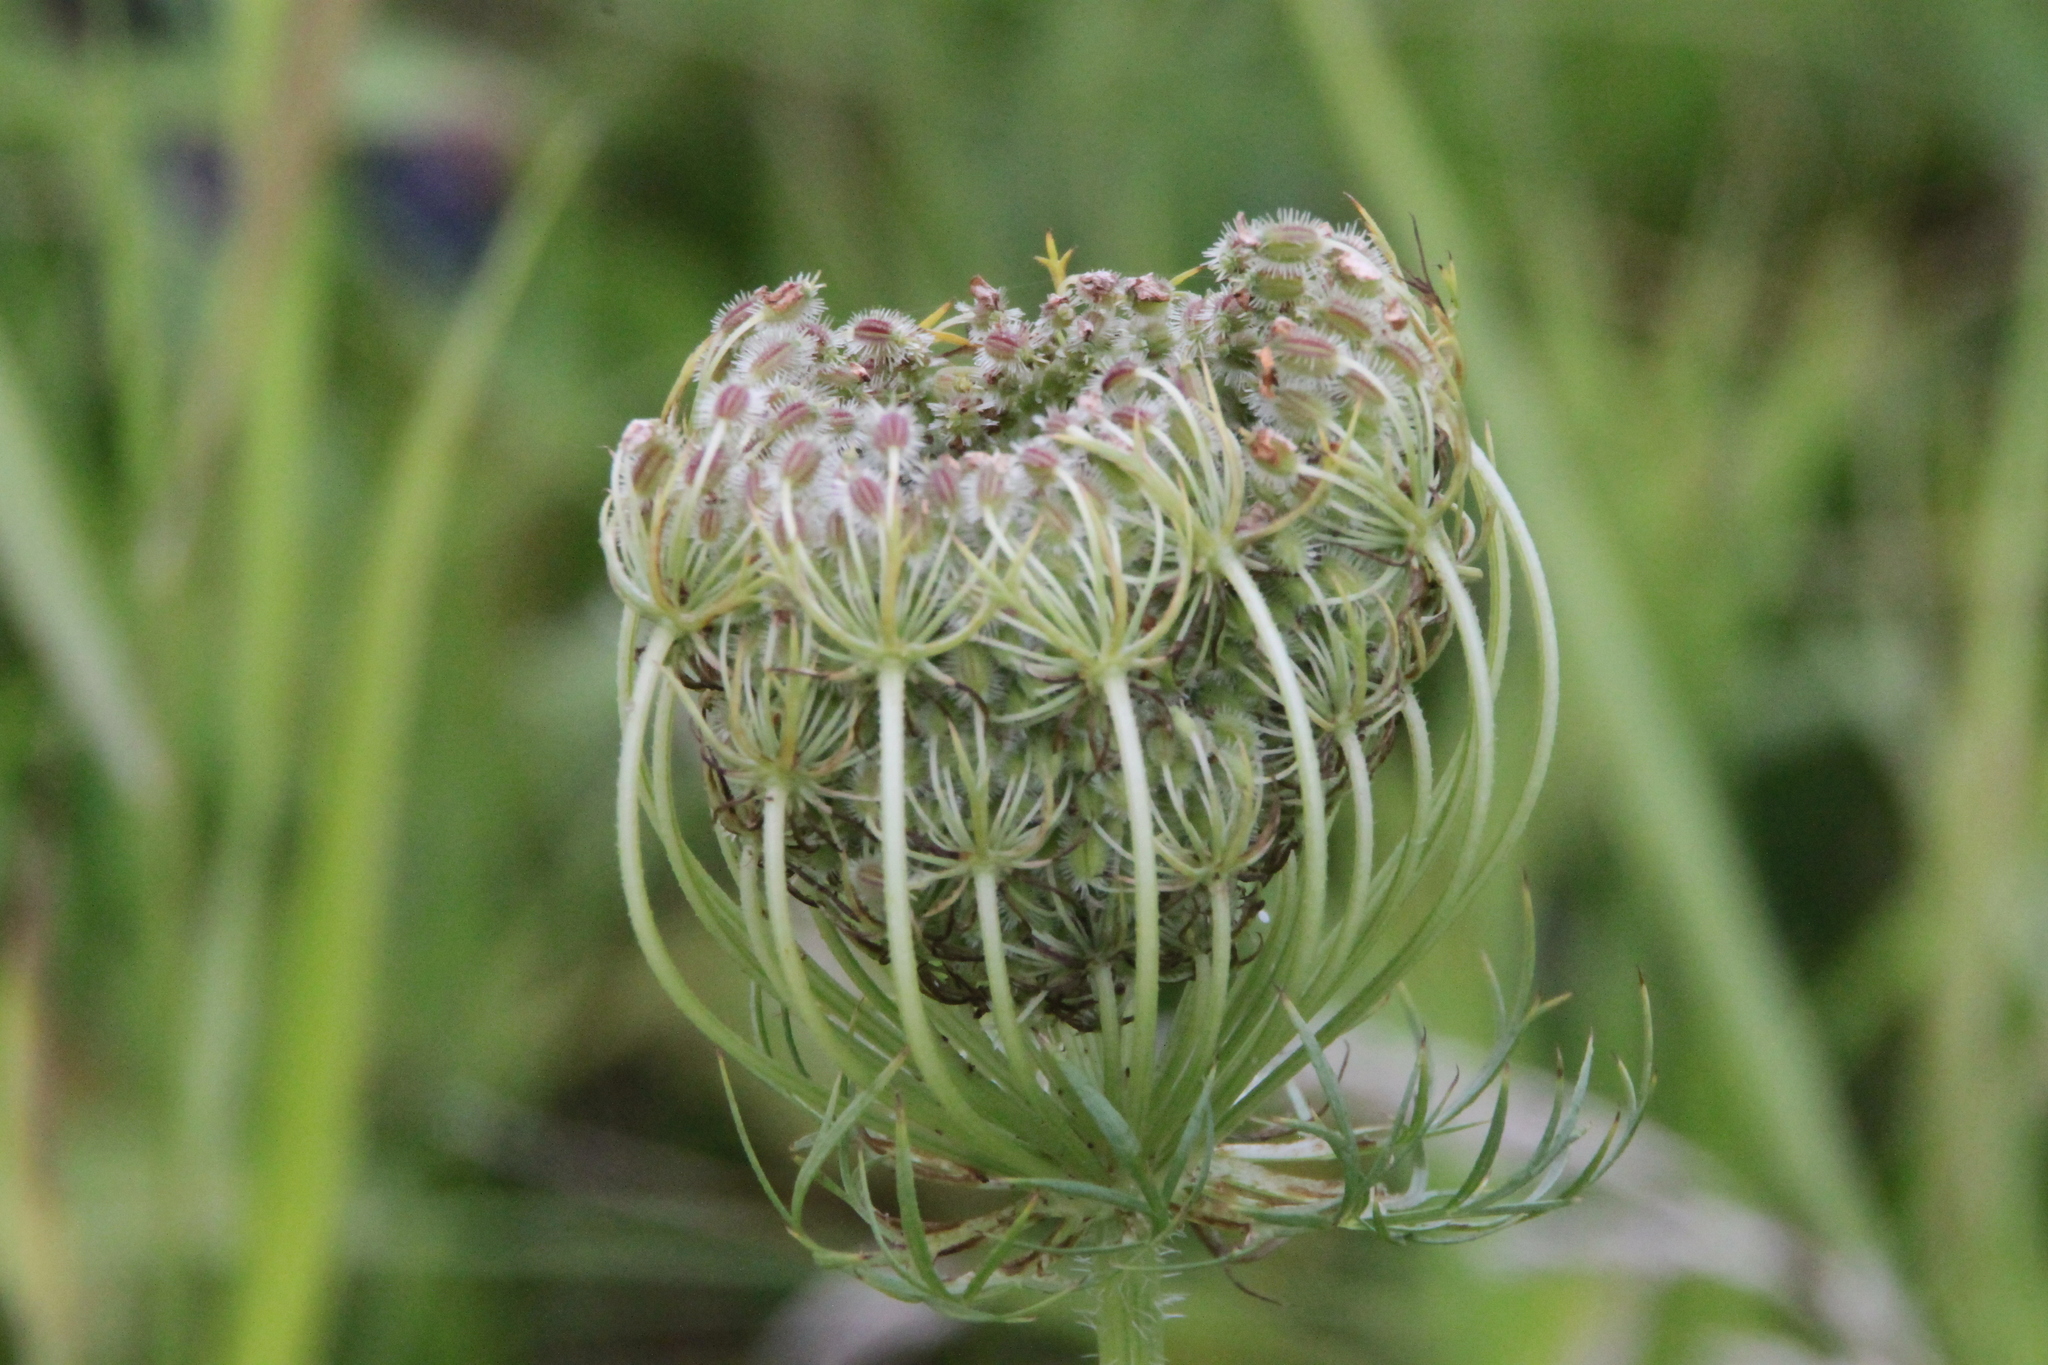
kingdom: Plantae
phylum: Tracheophyta
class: Magnoliopsida
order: Apiales
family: Apiaceae
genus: Daucus
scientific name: Daucus carota
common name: Wild carrot
